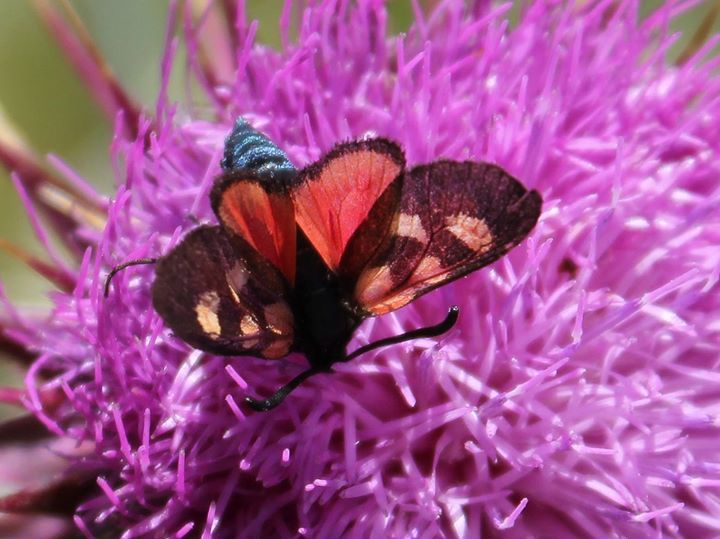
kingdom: Animalia
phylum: Arthropoda
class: Insecta
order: Lepidoptera
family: Zygaenidae
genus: Zygaena
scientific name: Zygaena lonicerae
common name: Narrow-bordered five-spot burnet
